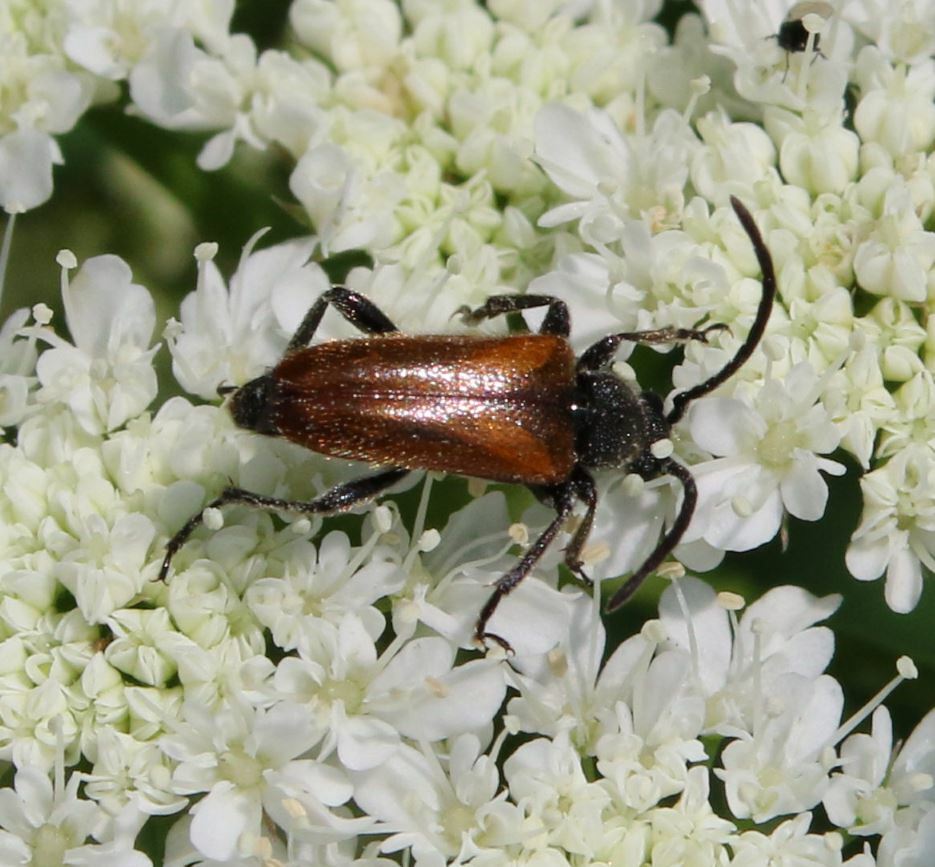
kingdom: Animalia
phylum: Arthropoda
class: Insecta
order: Coleoptera
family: Cerambycidae
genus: Pseudovadonia
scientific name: Pseudovadonia livida
